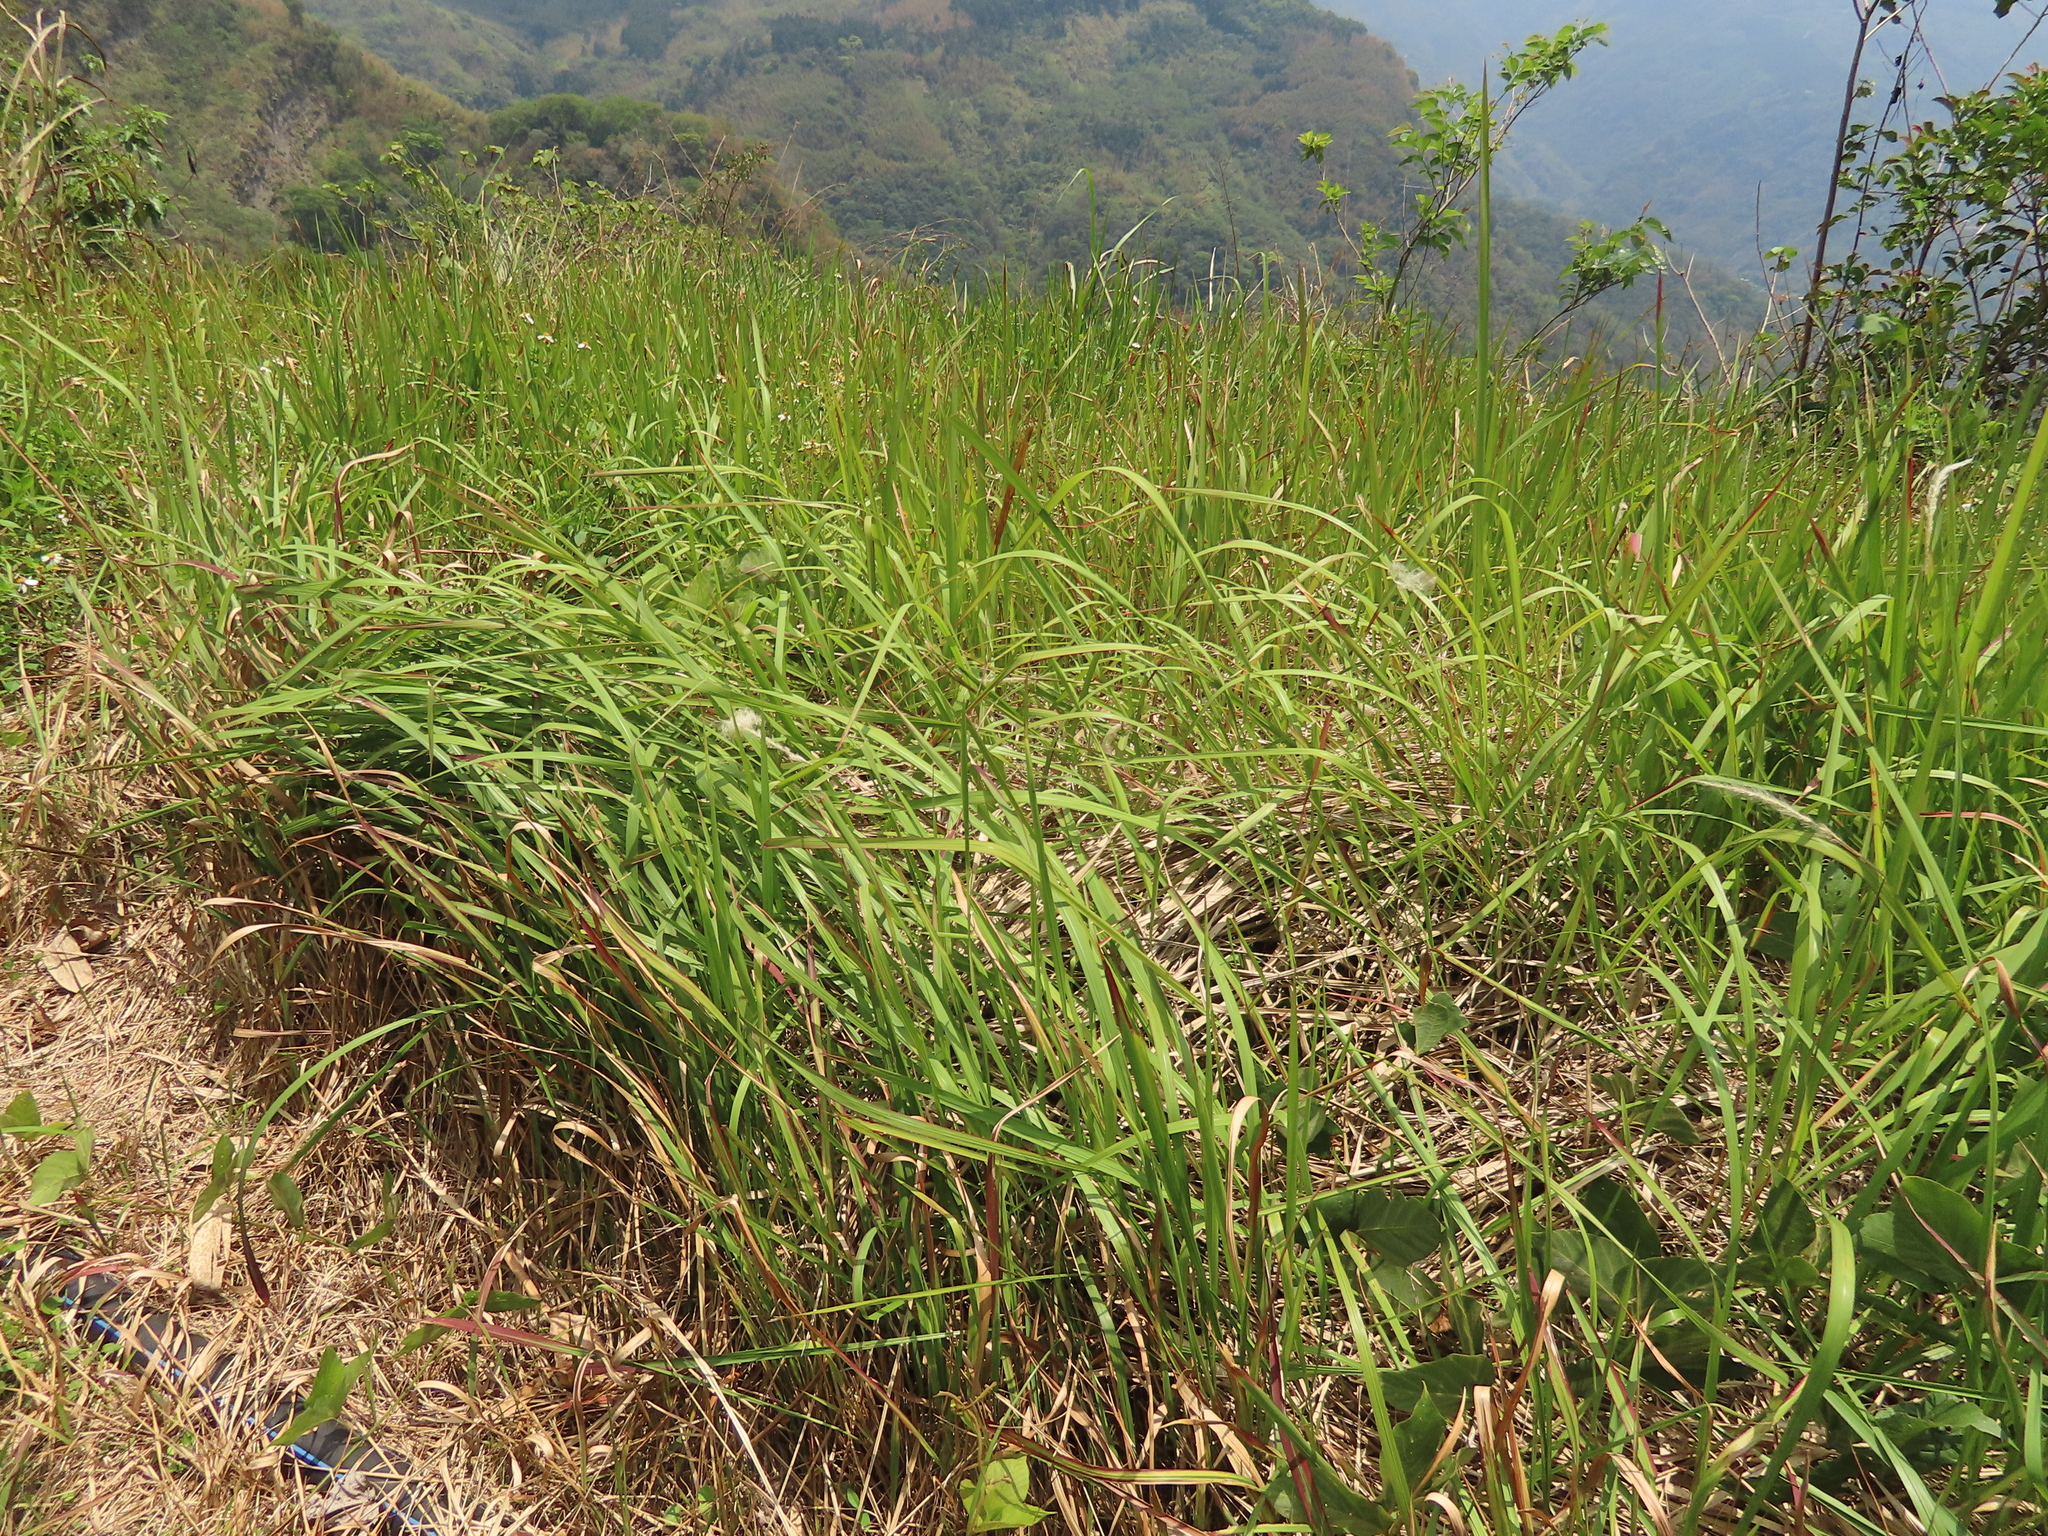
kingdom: Plantae
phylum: Tracheophyta
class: Liliopsida
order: Poales
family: Poaceae
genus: Imperata
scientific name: Imperata cylindrica
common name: Cogongrass
